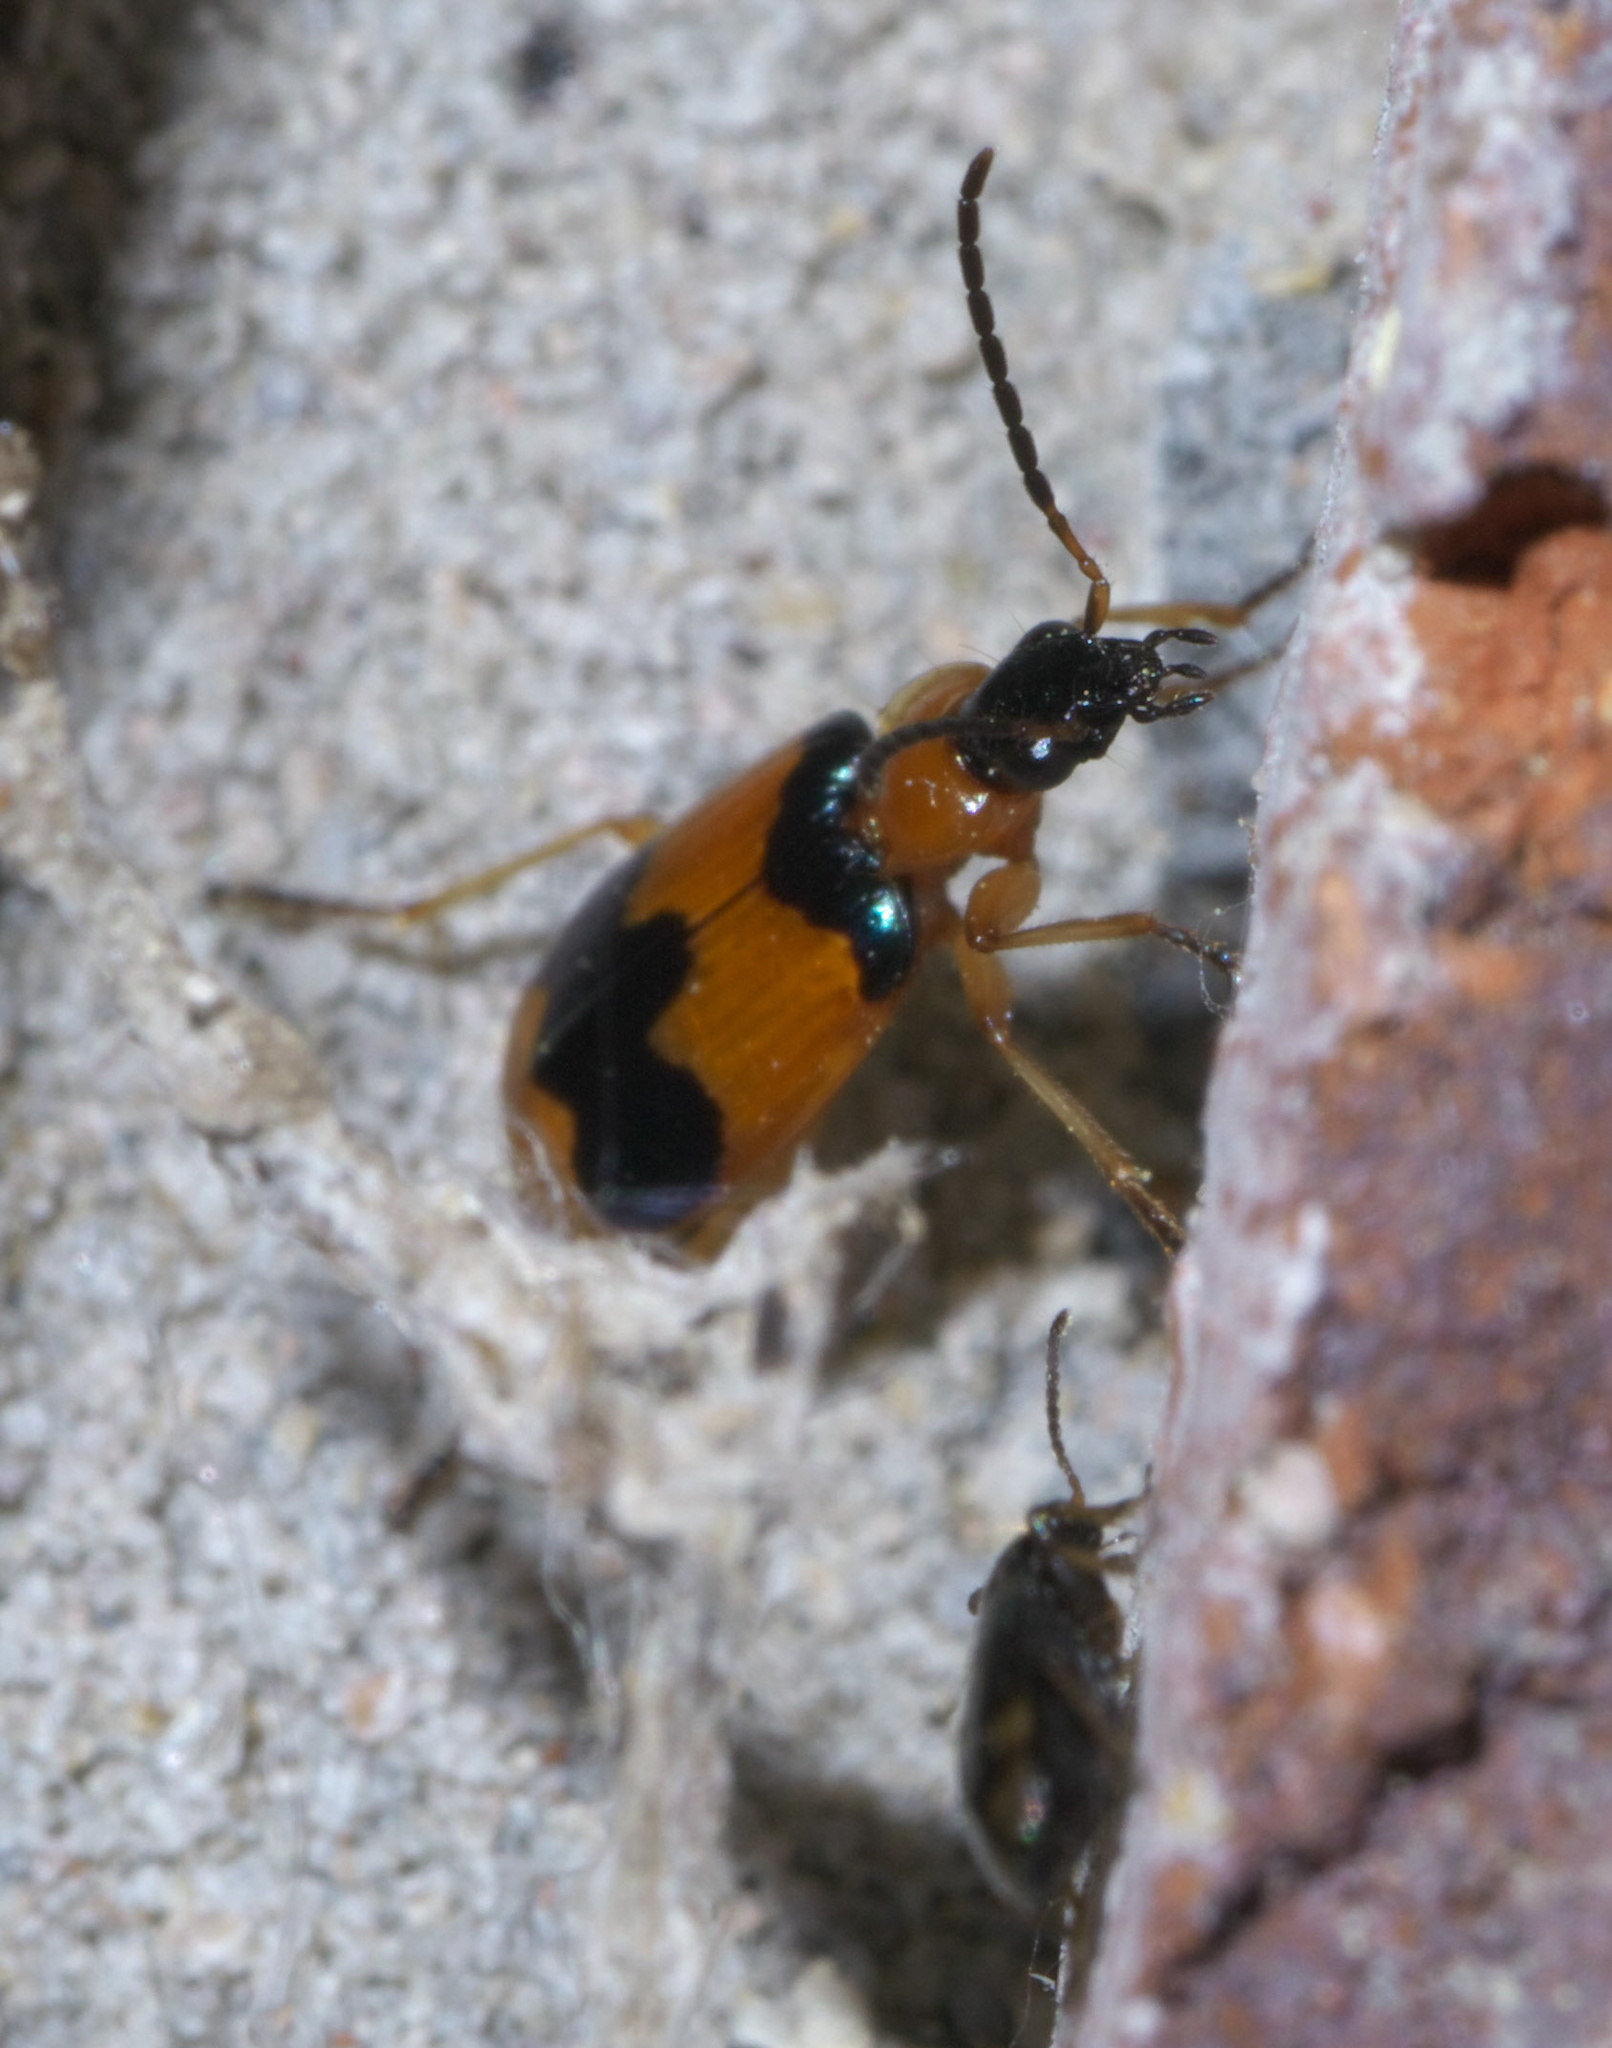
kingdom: Animalia
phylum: Arthropoda
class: Insecta
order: Coleoptera
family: Carabidae
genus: Lebia
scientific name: Lebia pulchella
